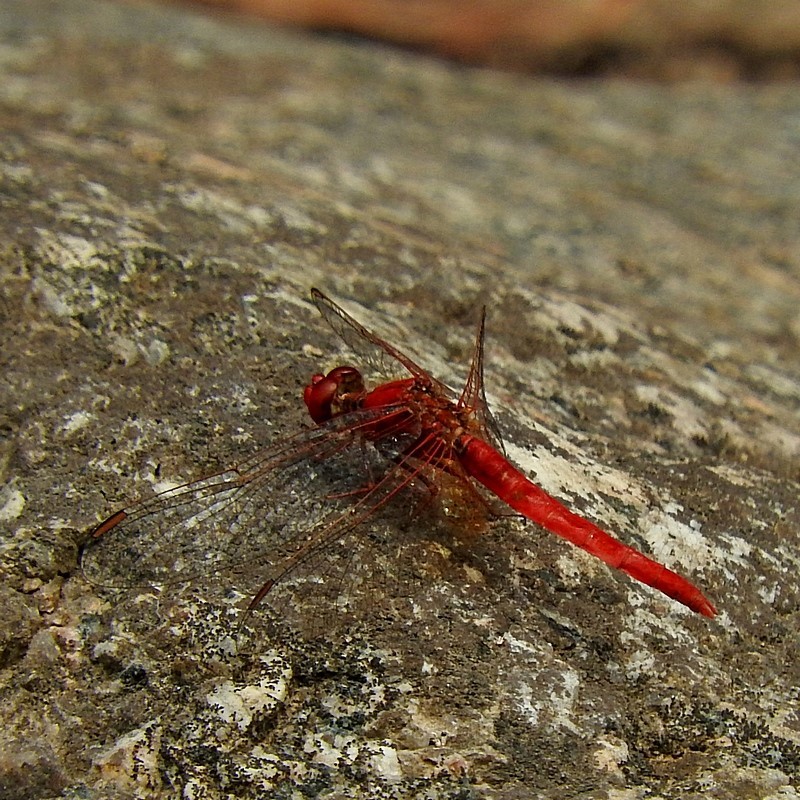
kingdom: Animalia
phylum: Arthropoda
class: Insecta
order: Odonata
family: Libellulidae
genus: Diplacodes
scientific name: Diplacodes haematodes
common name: Scarlet percher
